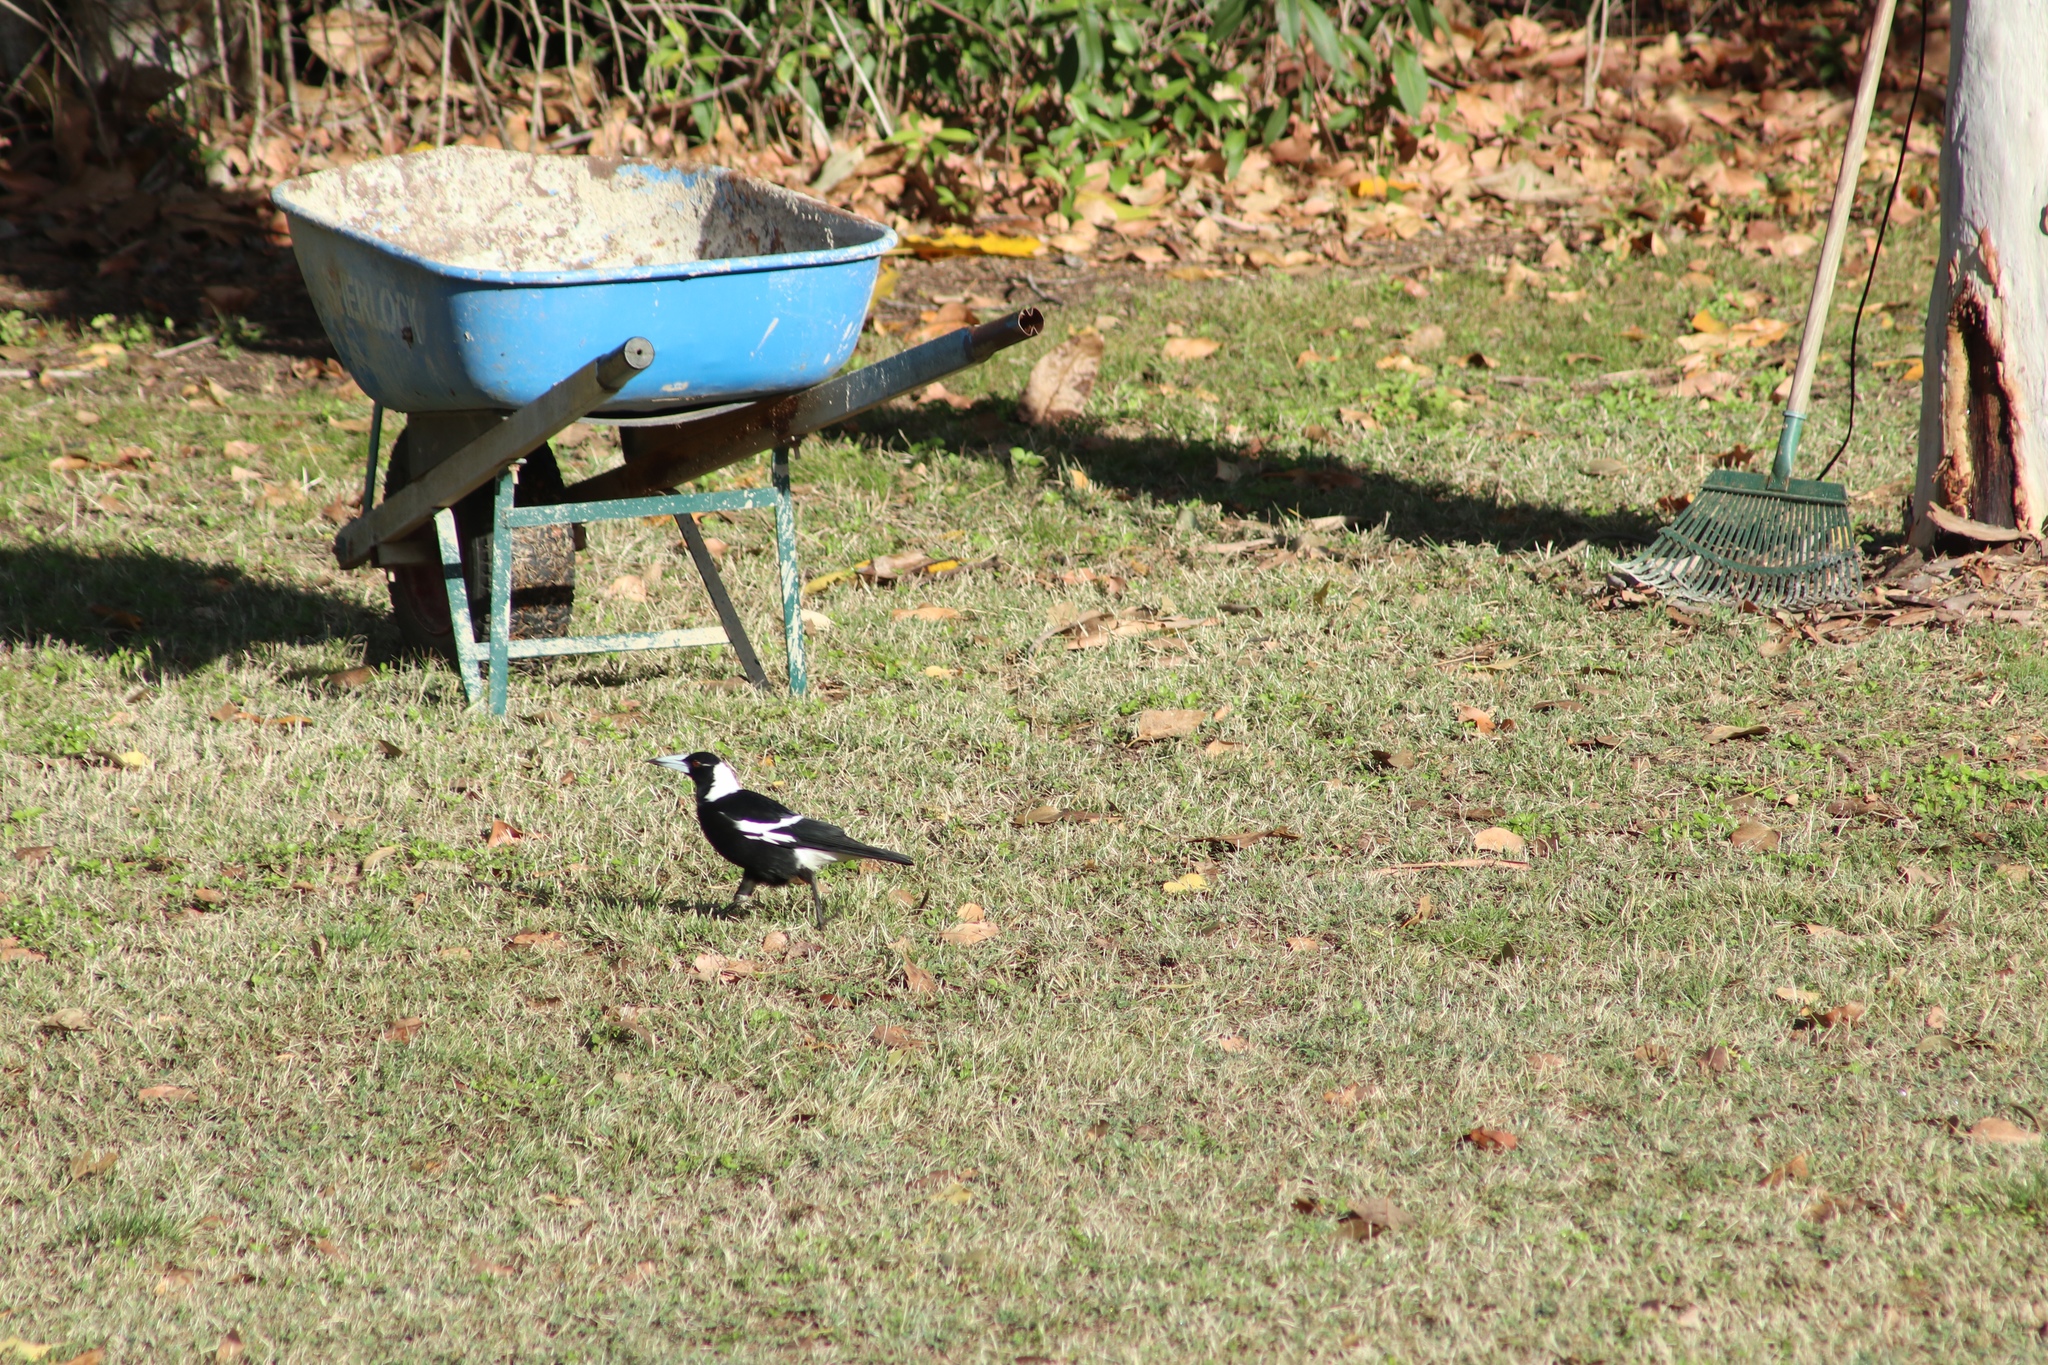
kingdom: Animalia
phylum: Chordata
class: Aves
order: Passeriformes
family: Cracticidae
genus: Gymnorhina
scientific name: Gymnorhina tibicen
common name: Australian magpie
